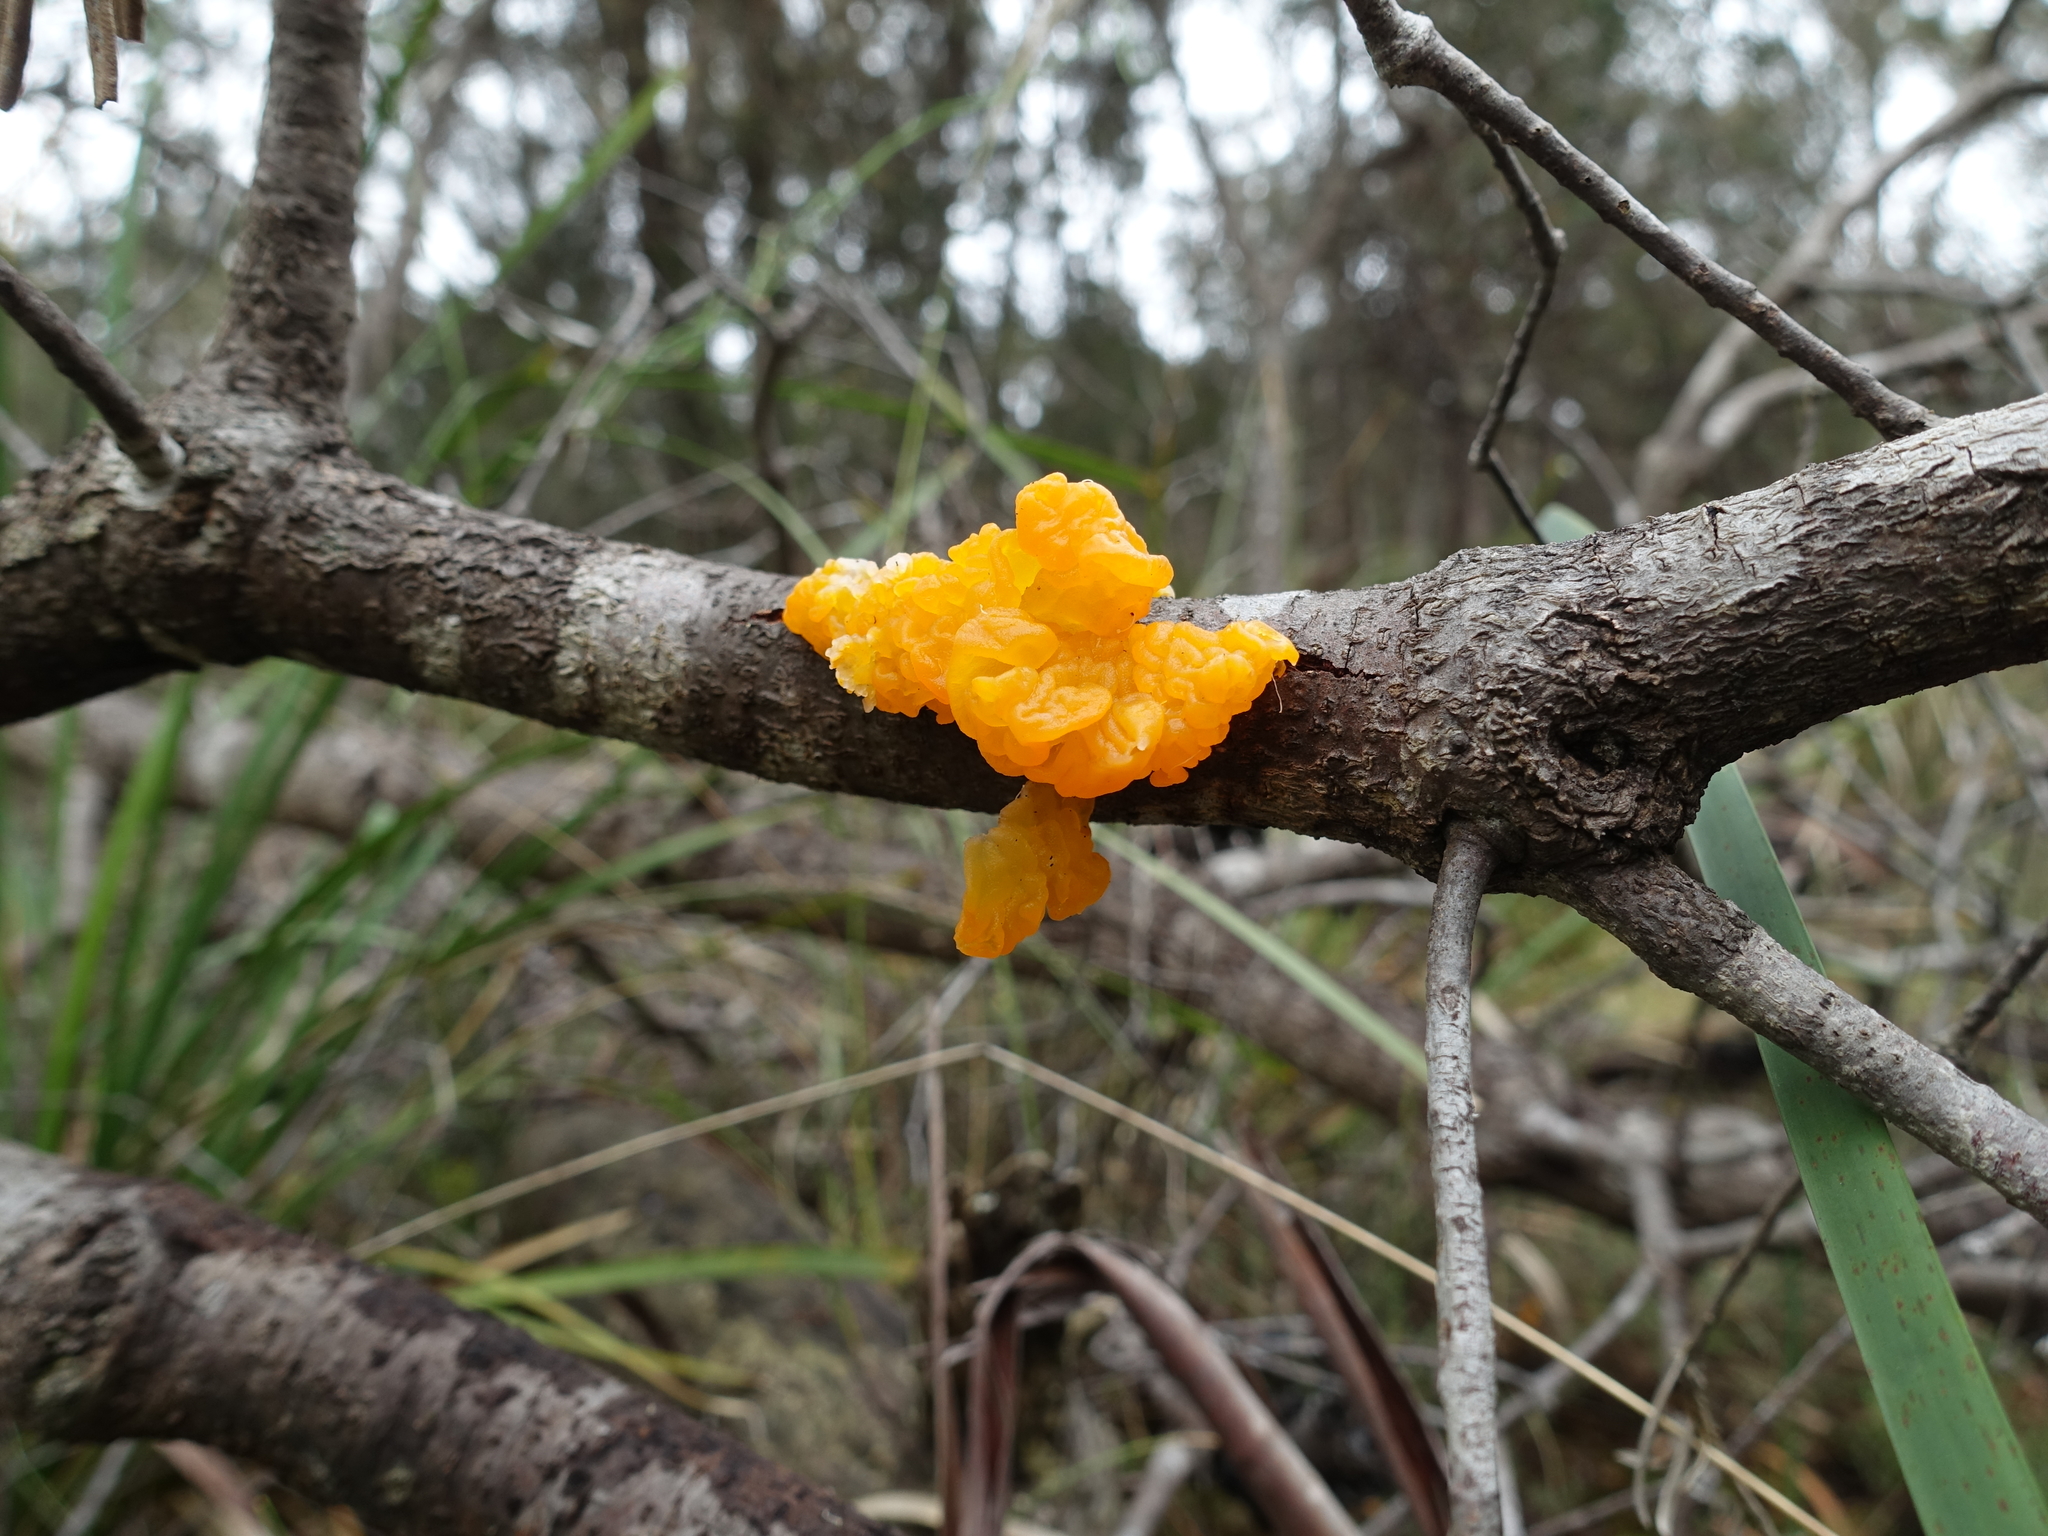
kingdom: Fungi
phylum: Basidiomycota
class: Tremellomycetes
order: Tremellales
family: Tremellaceae
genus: Tremella
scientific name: Tremella mesenterica
